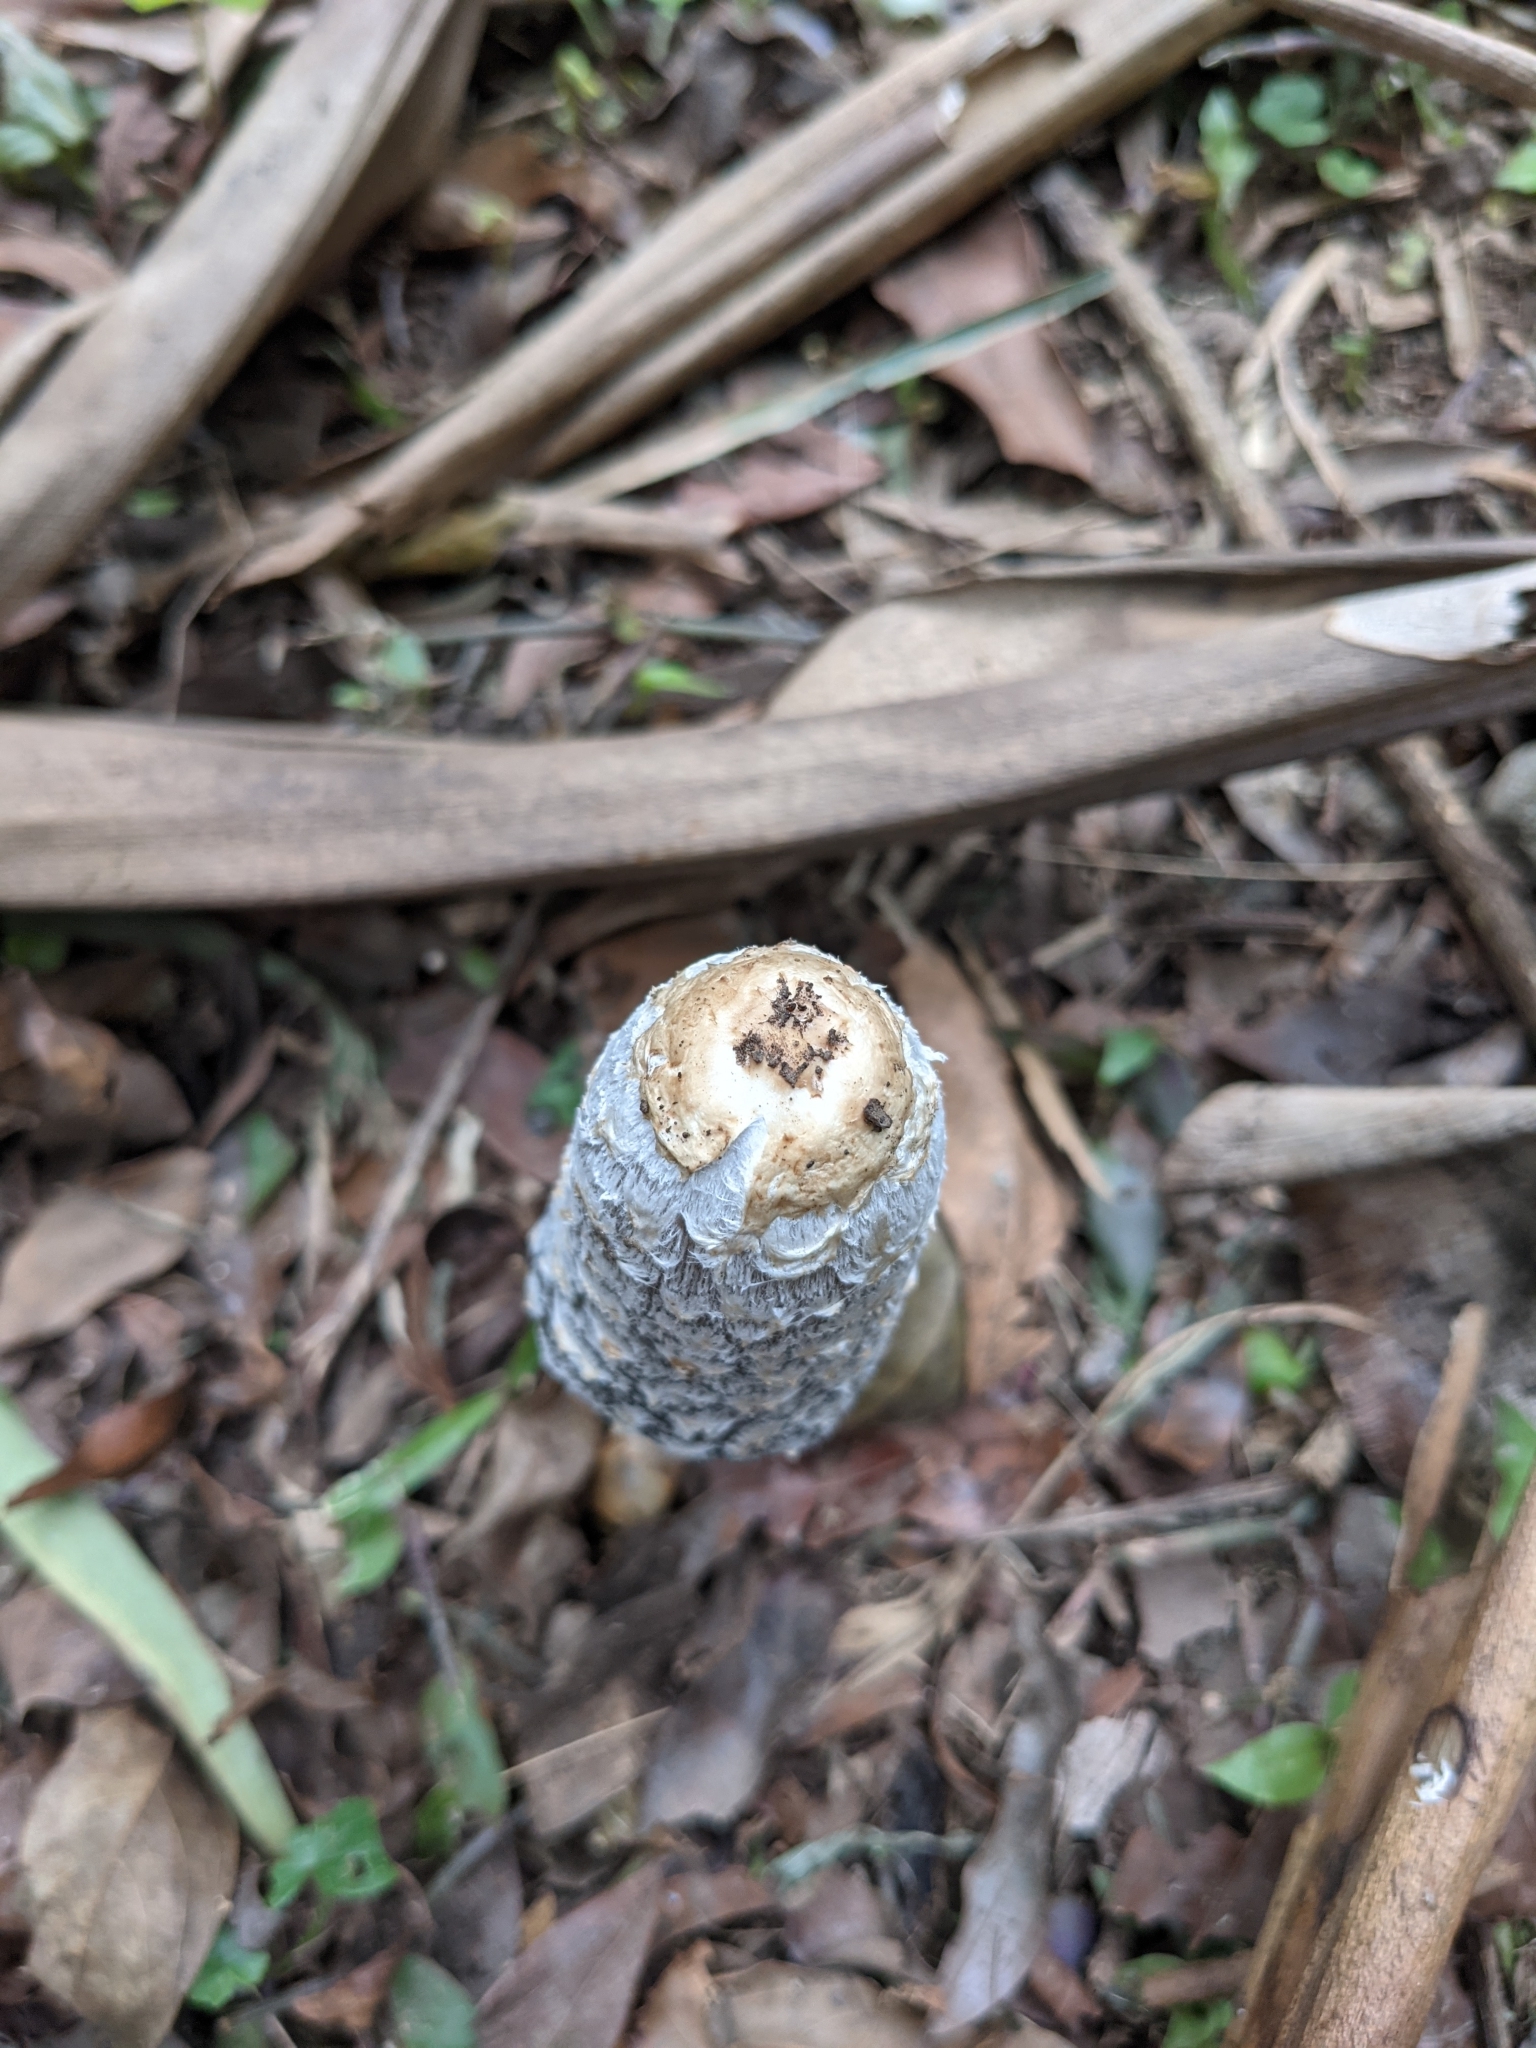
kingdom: Fungi
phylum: Basidiomycota
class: Agaricomycetes
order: Agaricales
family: Agaricaceae
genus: Coprinus
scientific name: Coprinus comatus
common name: Lawyer's wig
